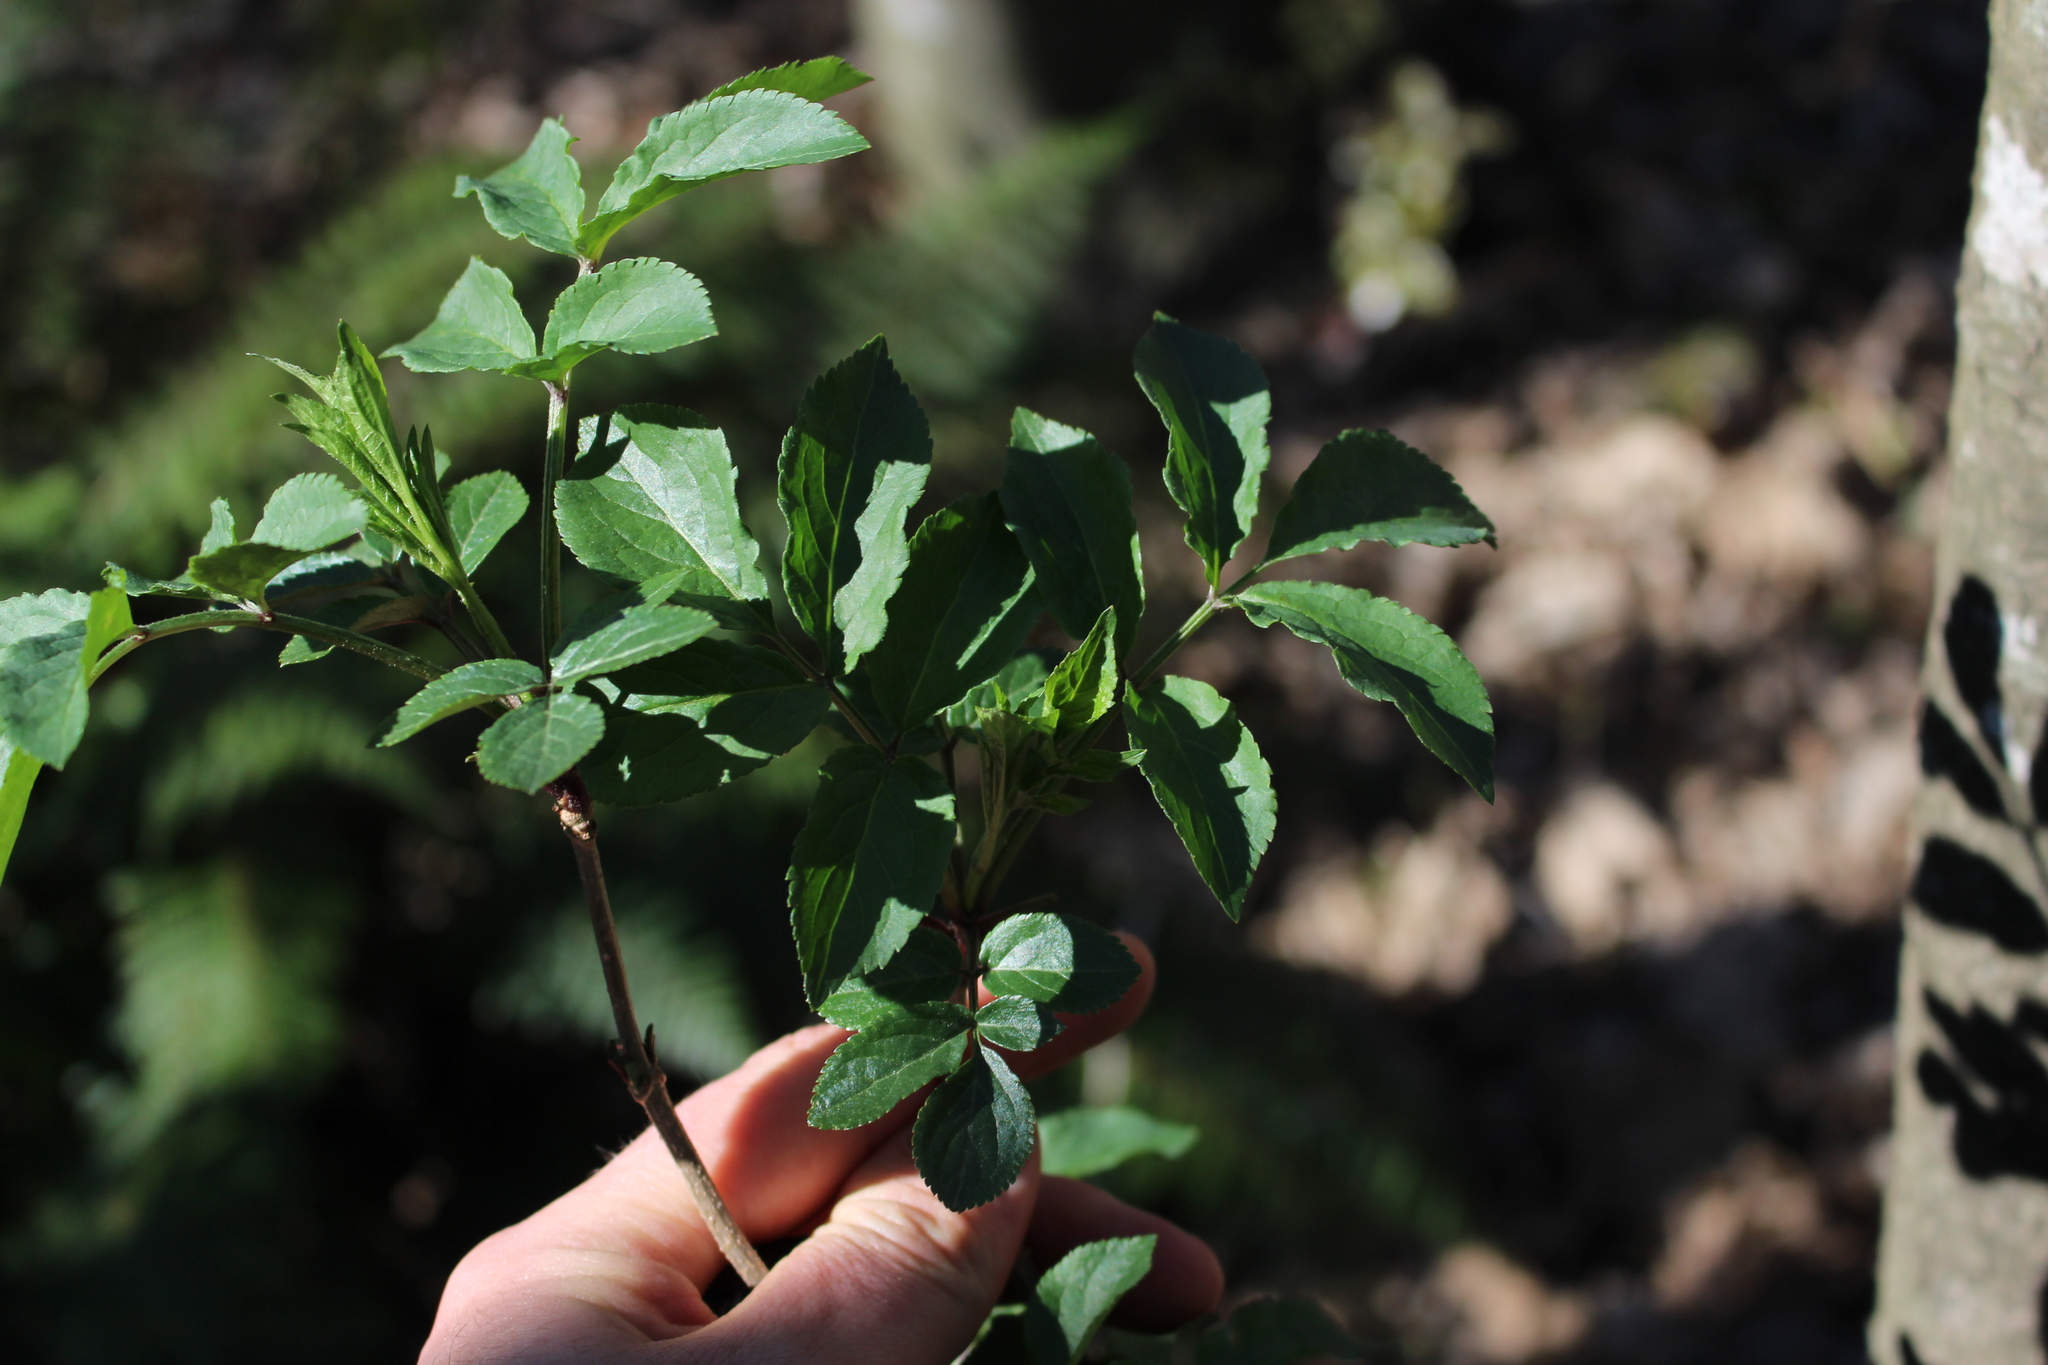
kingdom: Plantae
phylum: Tracheophyta
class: Magnoliopsida
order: Dipsacales
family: Viburnaceae
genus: Sambucus
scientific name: Sambucus nigra
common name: Elder
